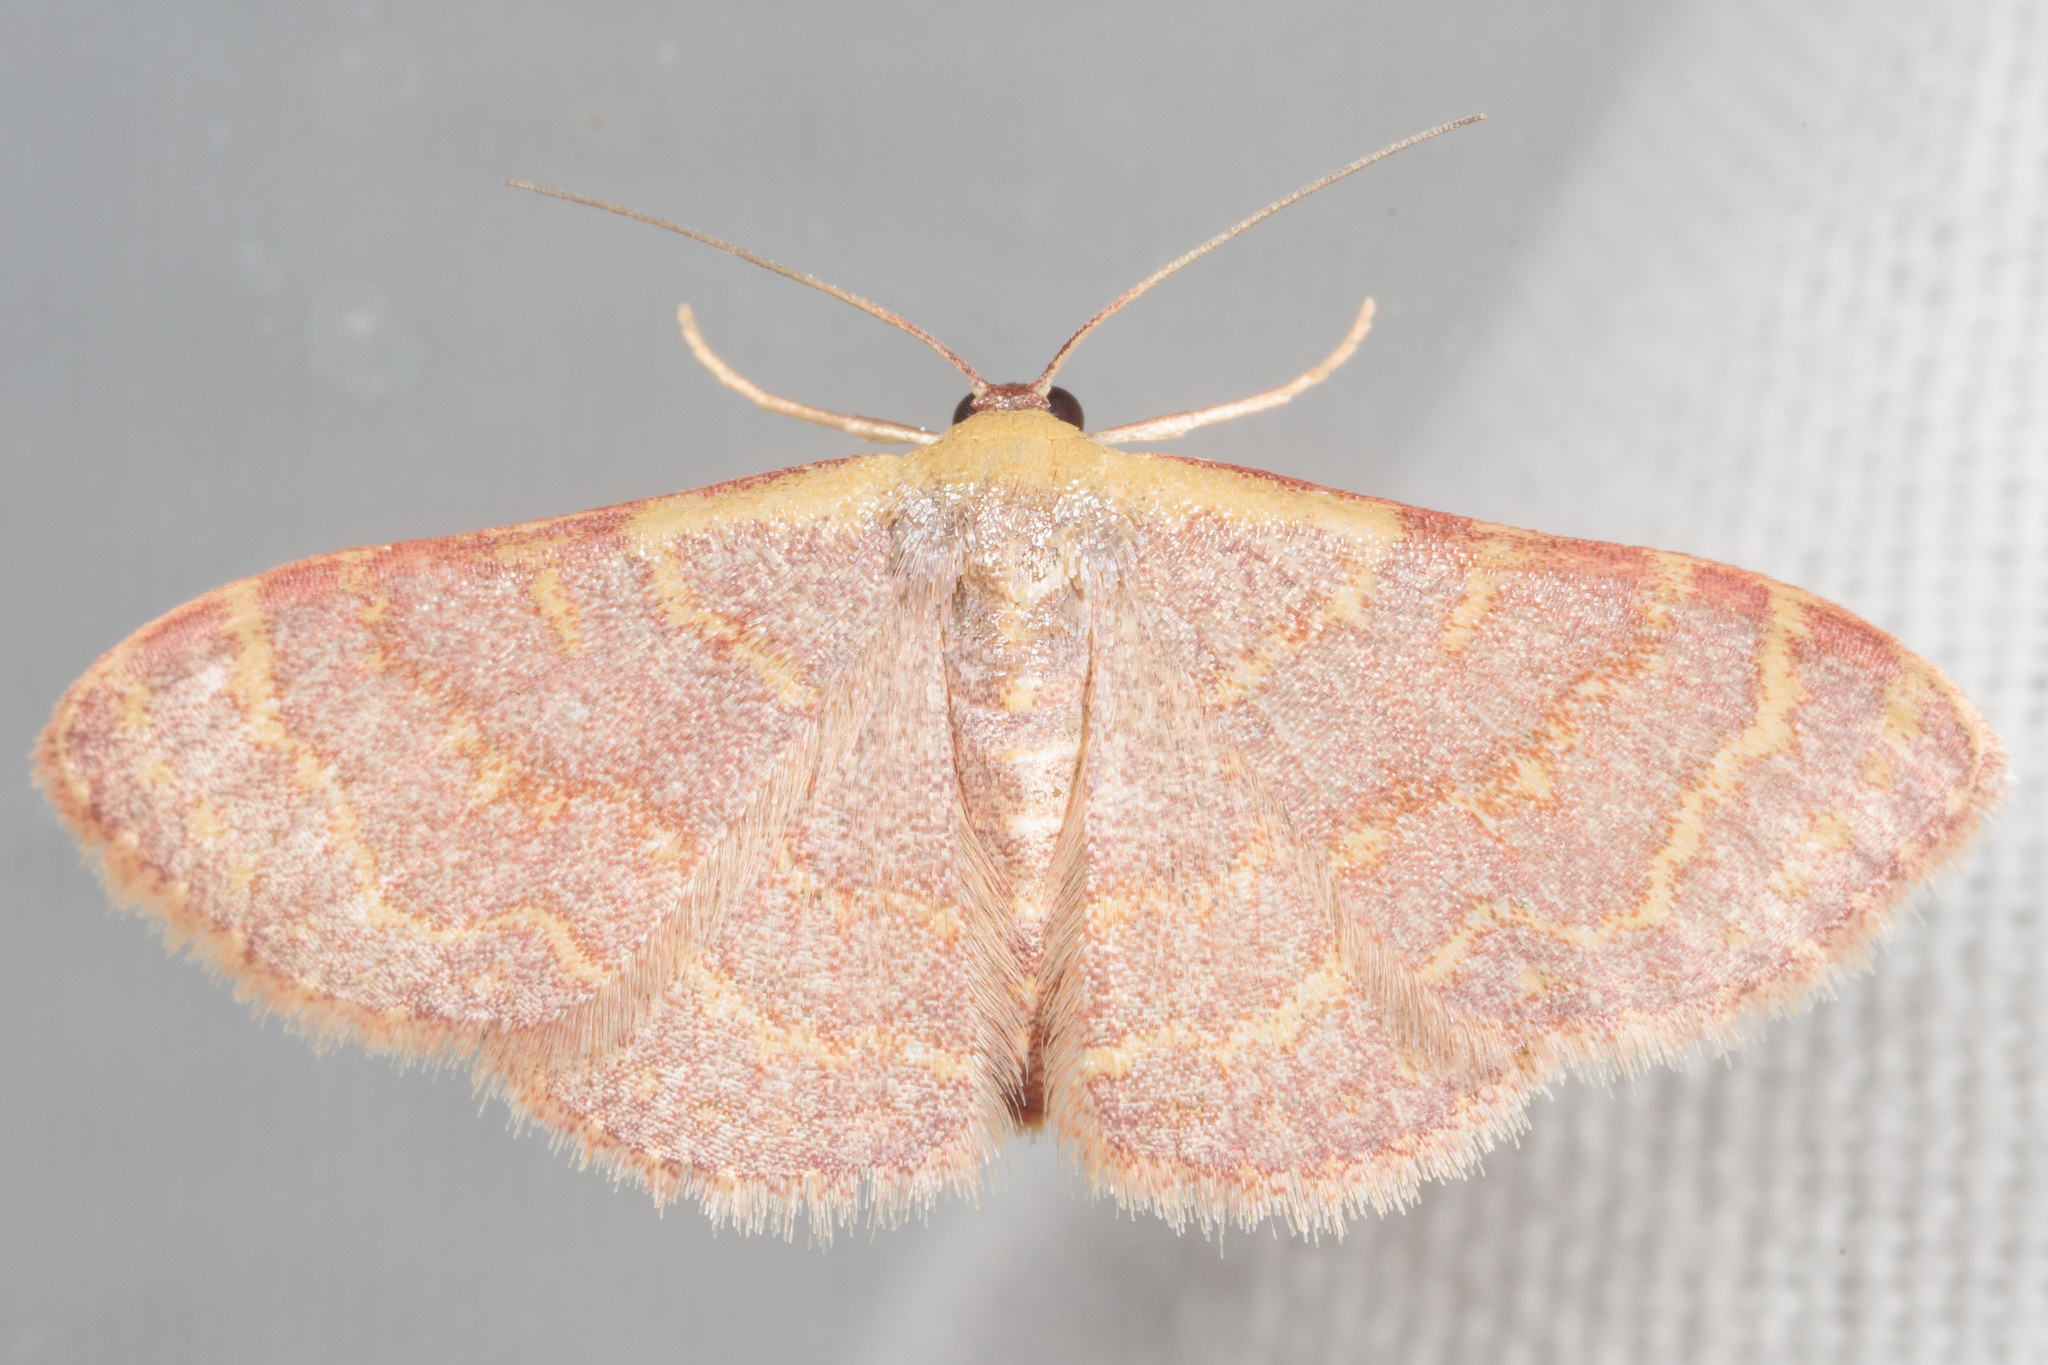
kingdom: Animalia
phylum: Arthropoda
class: Insecta
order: Lepidoptera
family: Geometridae
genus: Leptostales
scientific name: Leptostales pannaria
